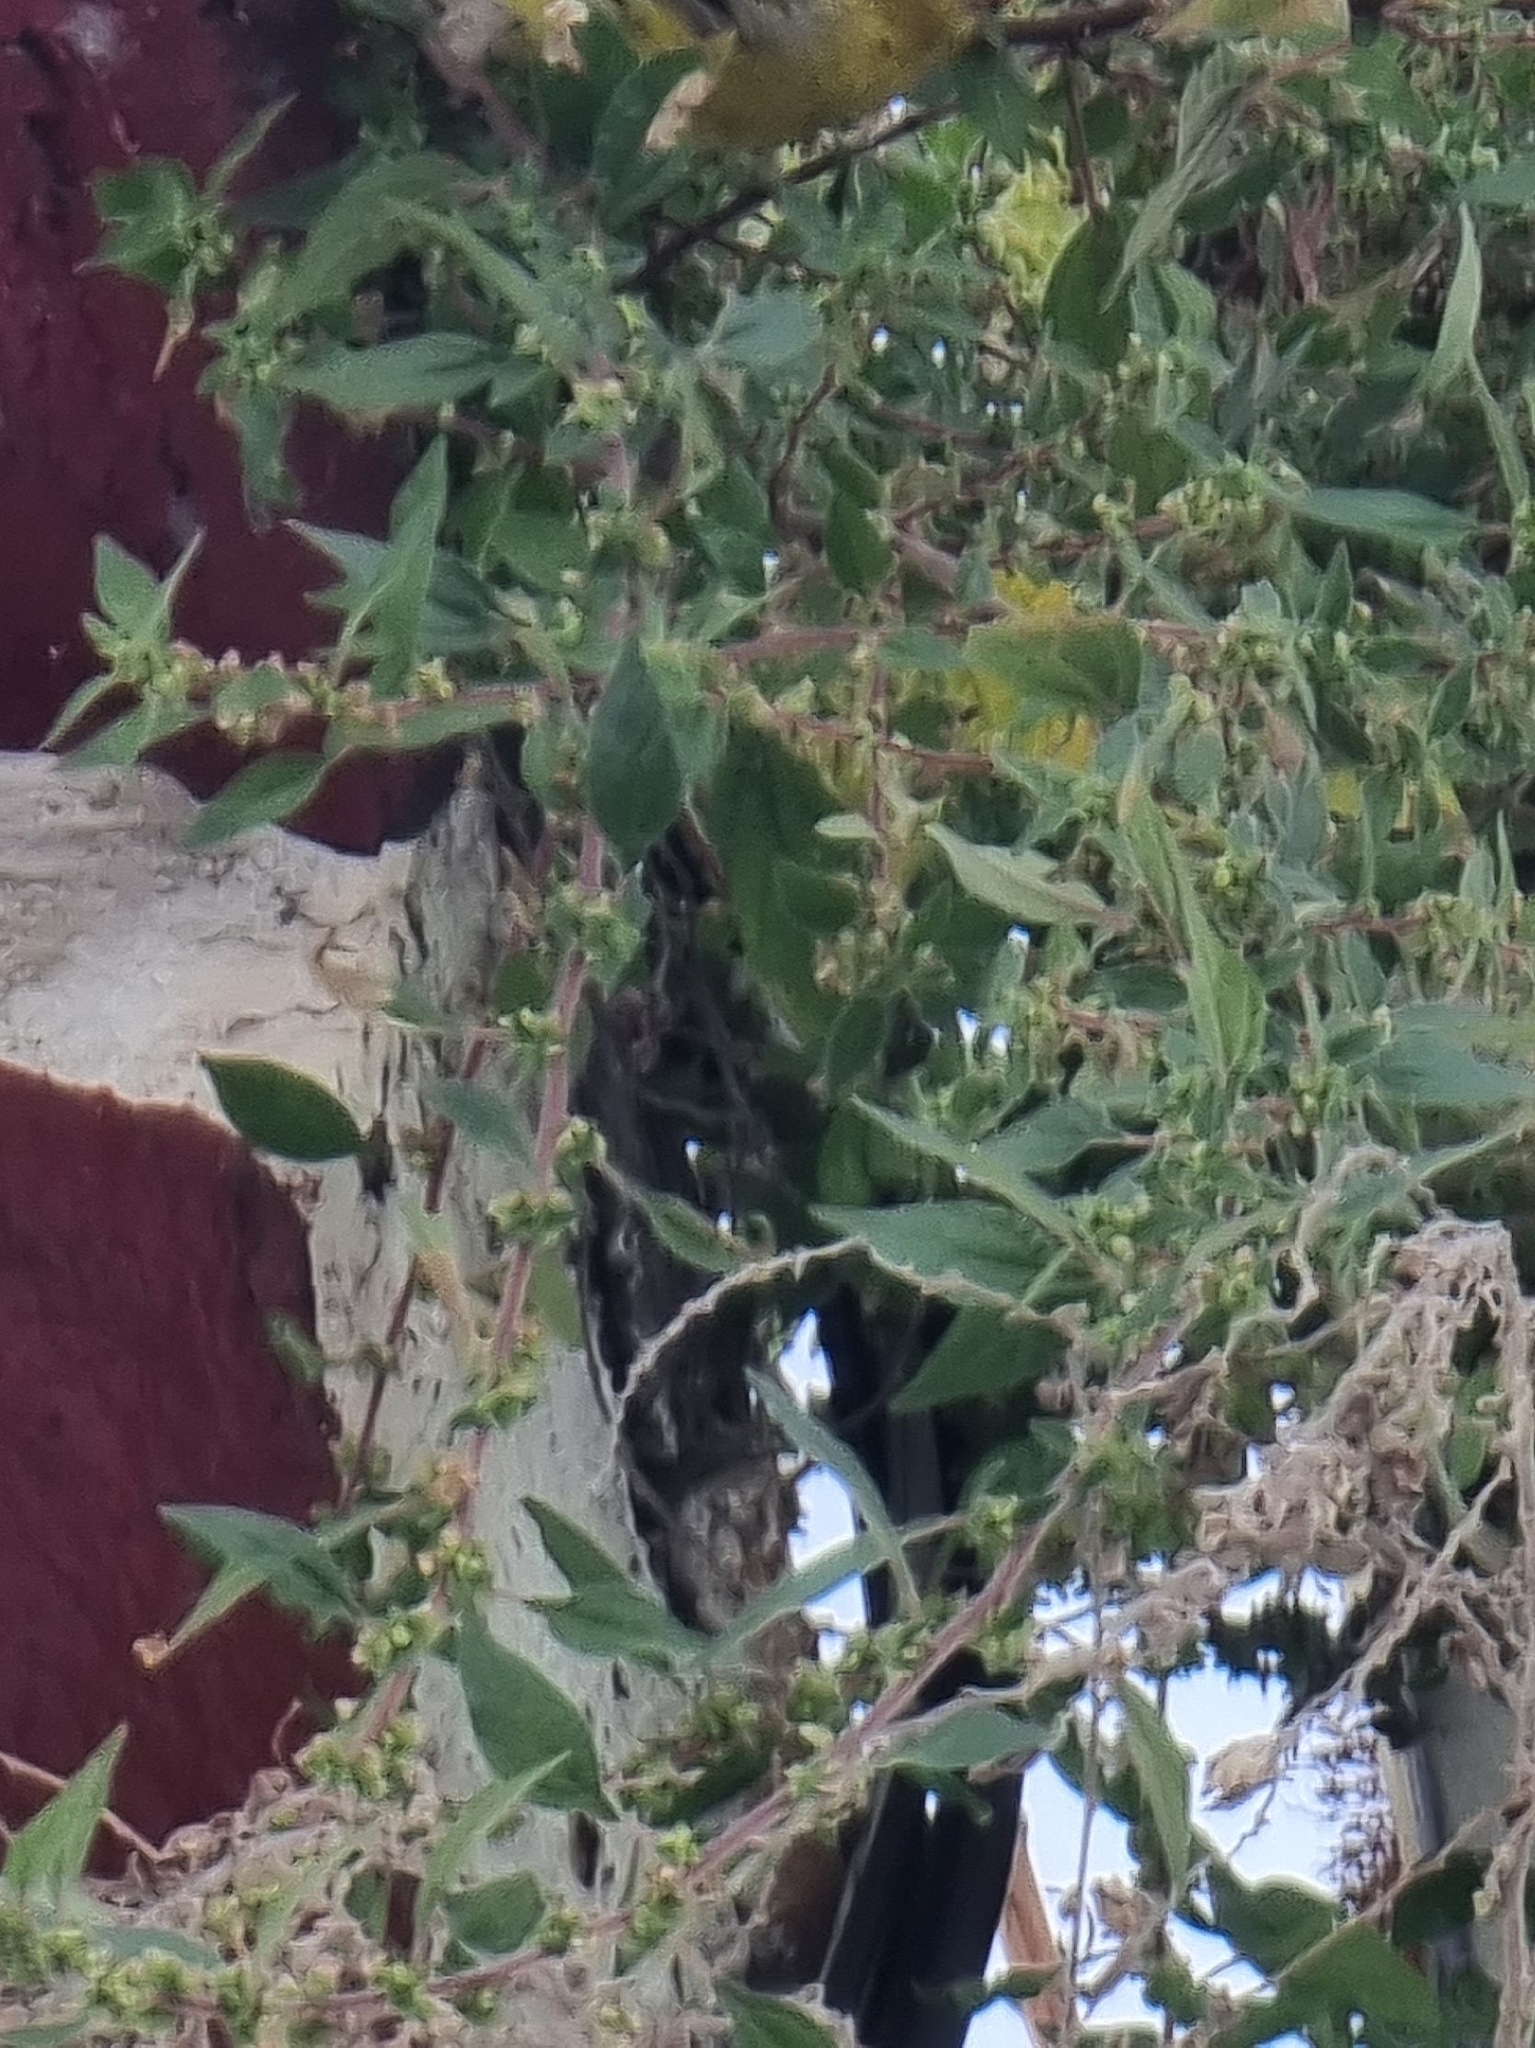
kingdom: Plantae
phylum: Tracheophyta
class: Magnoliopsida
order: Rosales
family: Urticaceae
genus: Parietaria
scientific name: Parietaria judaica
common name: Pellitory-of-the-wall
